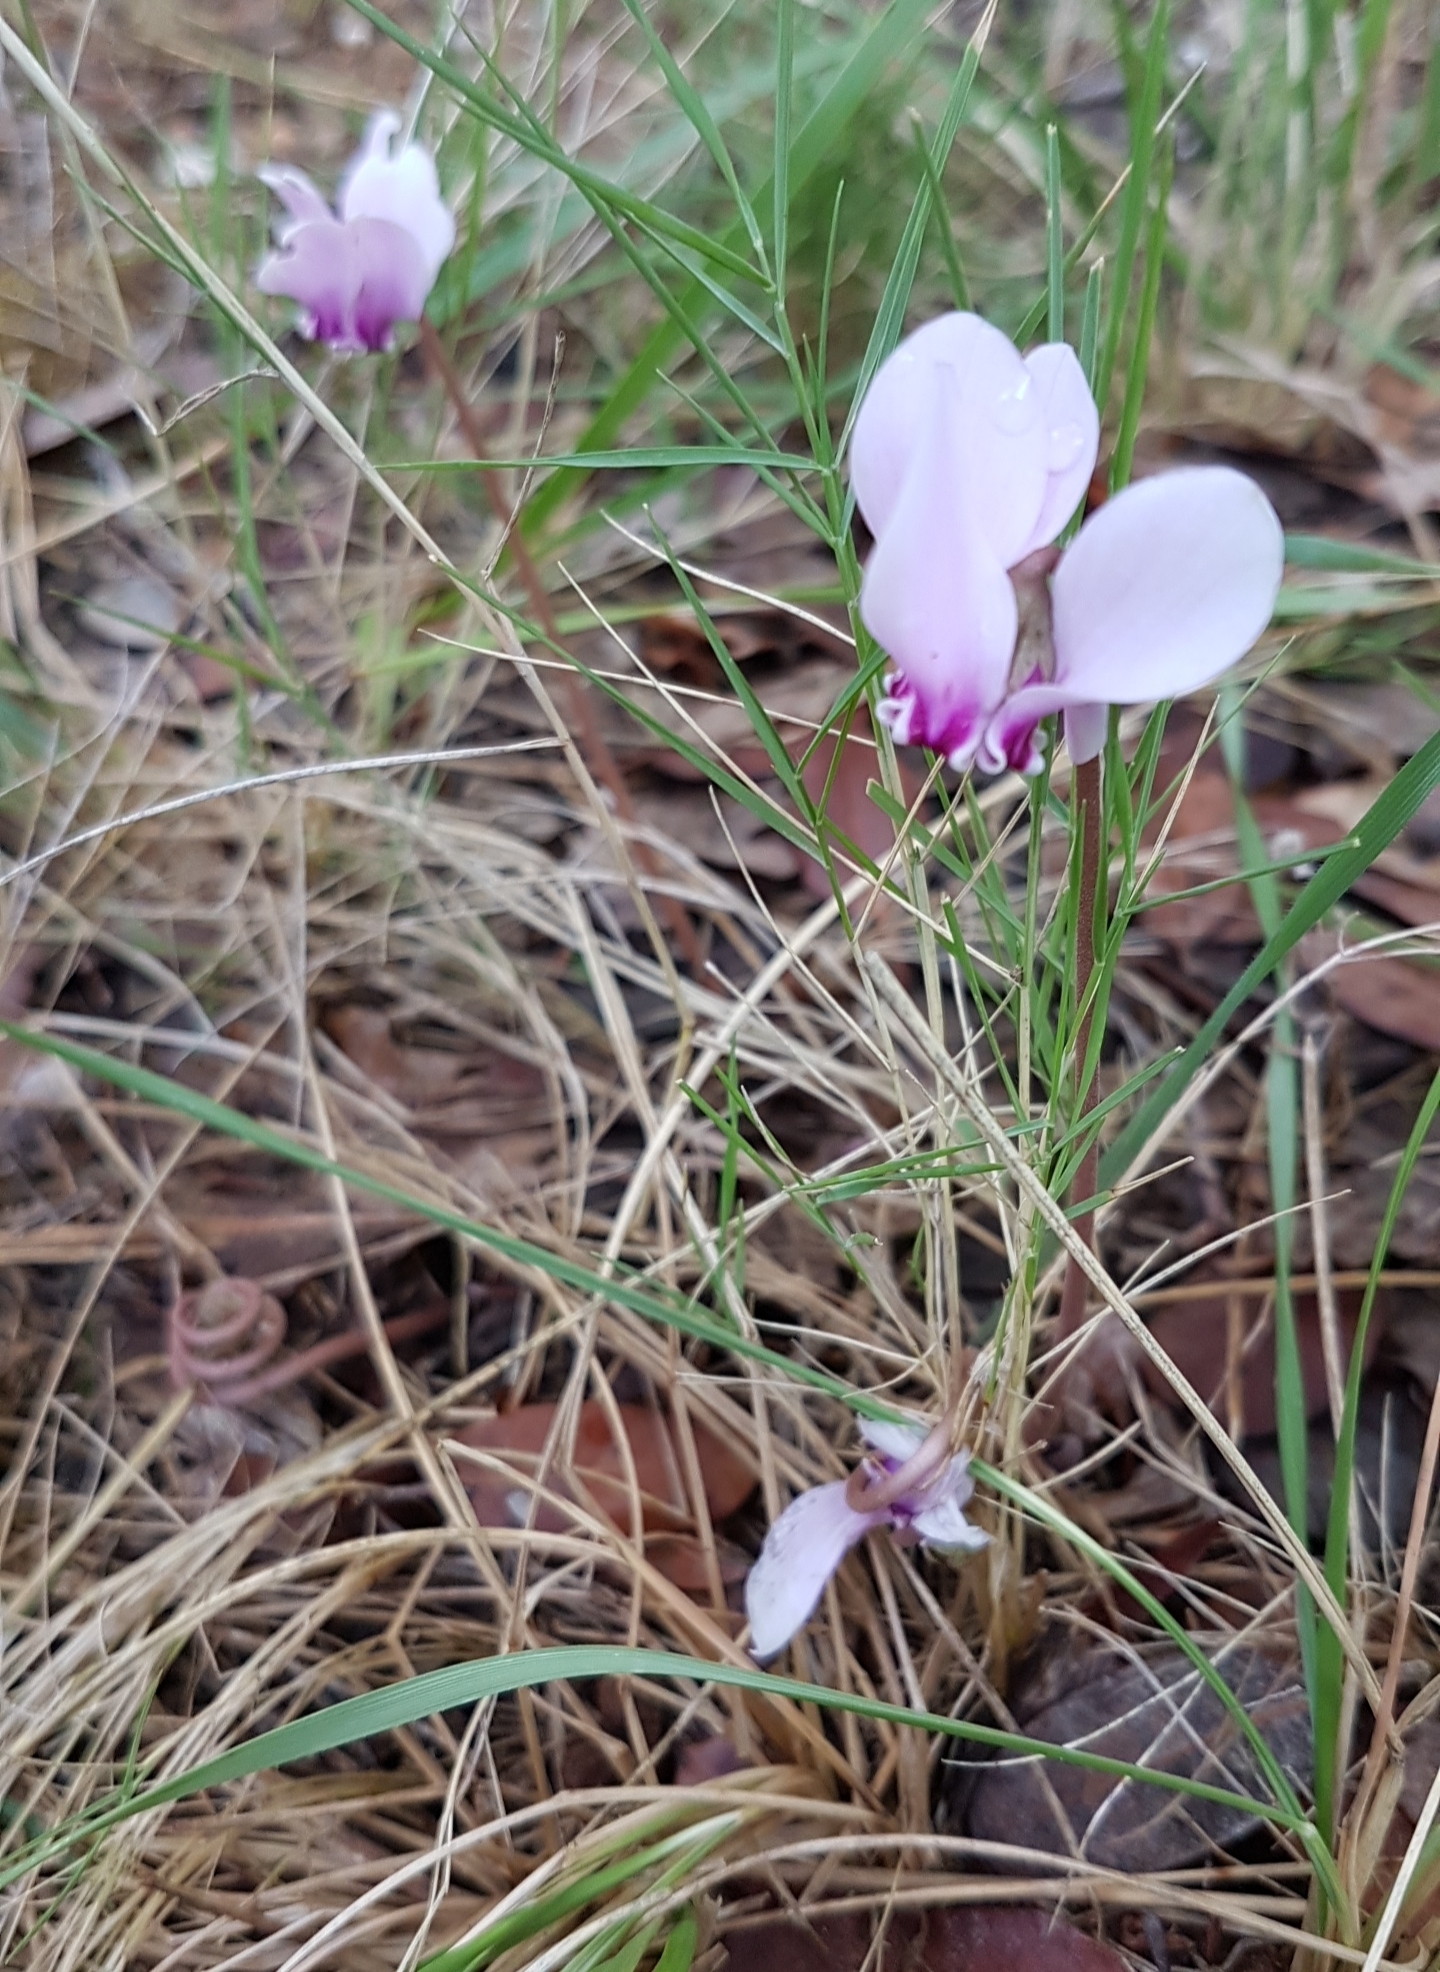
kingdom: Plantae
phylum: Tracheophyta
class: Magnoliopsida
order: Ericales
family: Primulaceae
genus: Cyclamen
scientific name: Cyclamen hederifolium
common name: Sowbread
